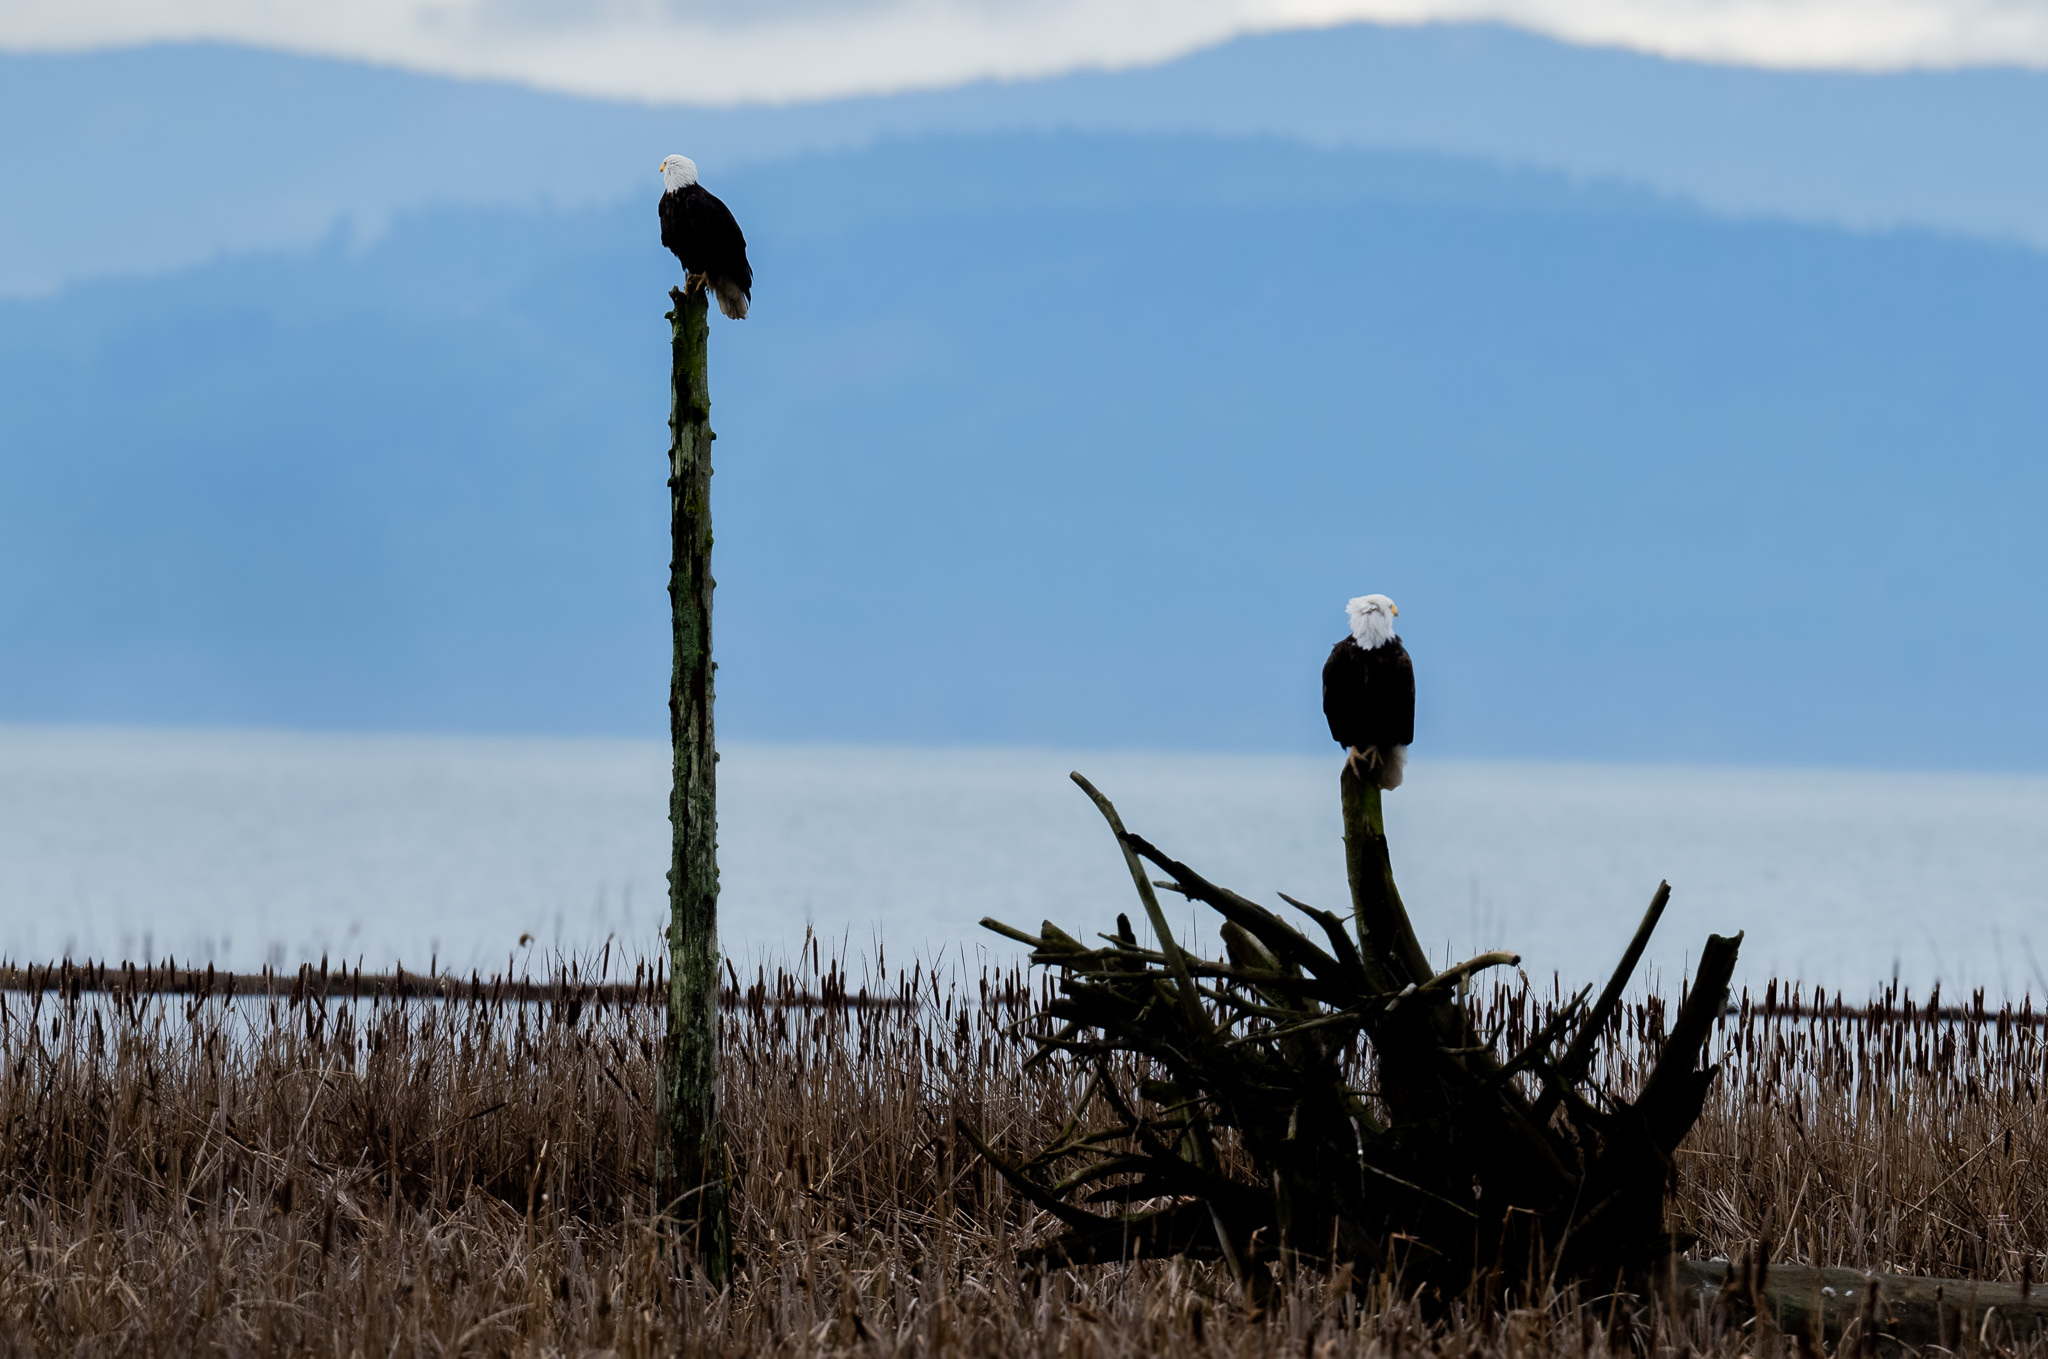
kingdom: Animalia
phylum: Chordata
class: Aves
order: Accipitriformes
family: Accipitridae
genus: Haliaeetus
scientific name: Haliaeetus leucocephalus
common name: Bald eagle
